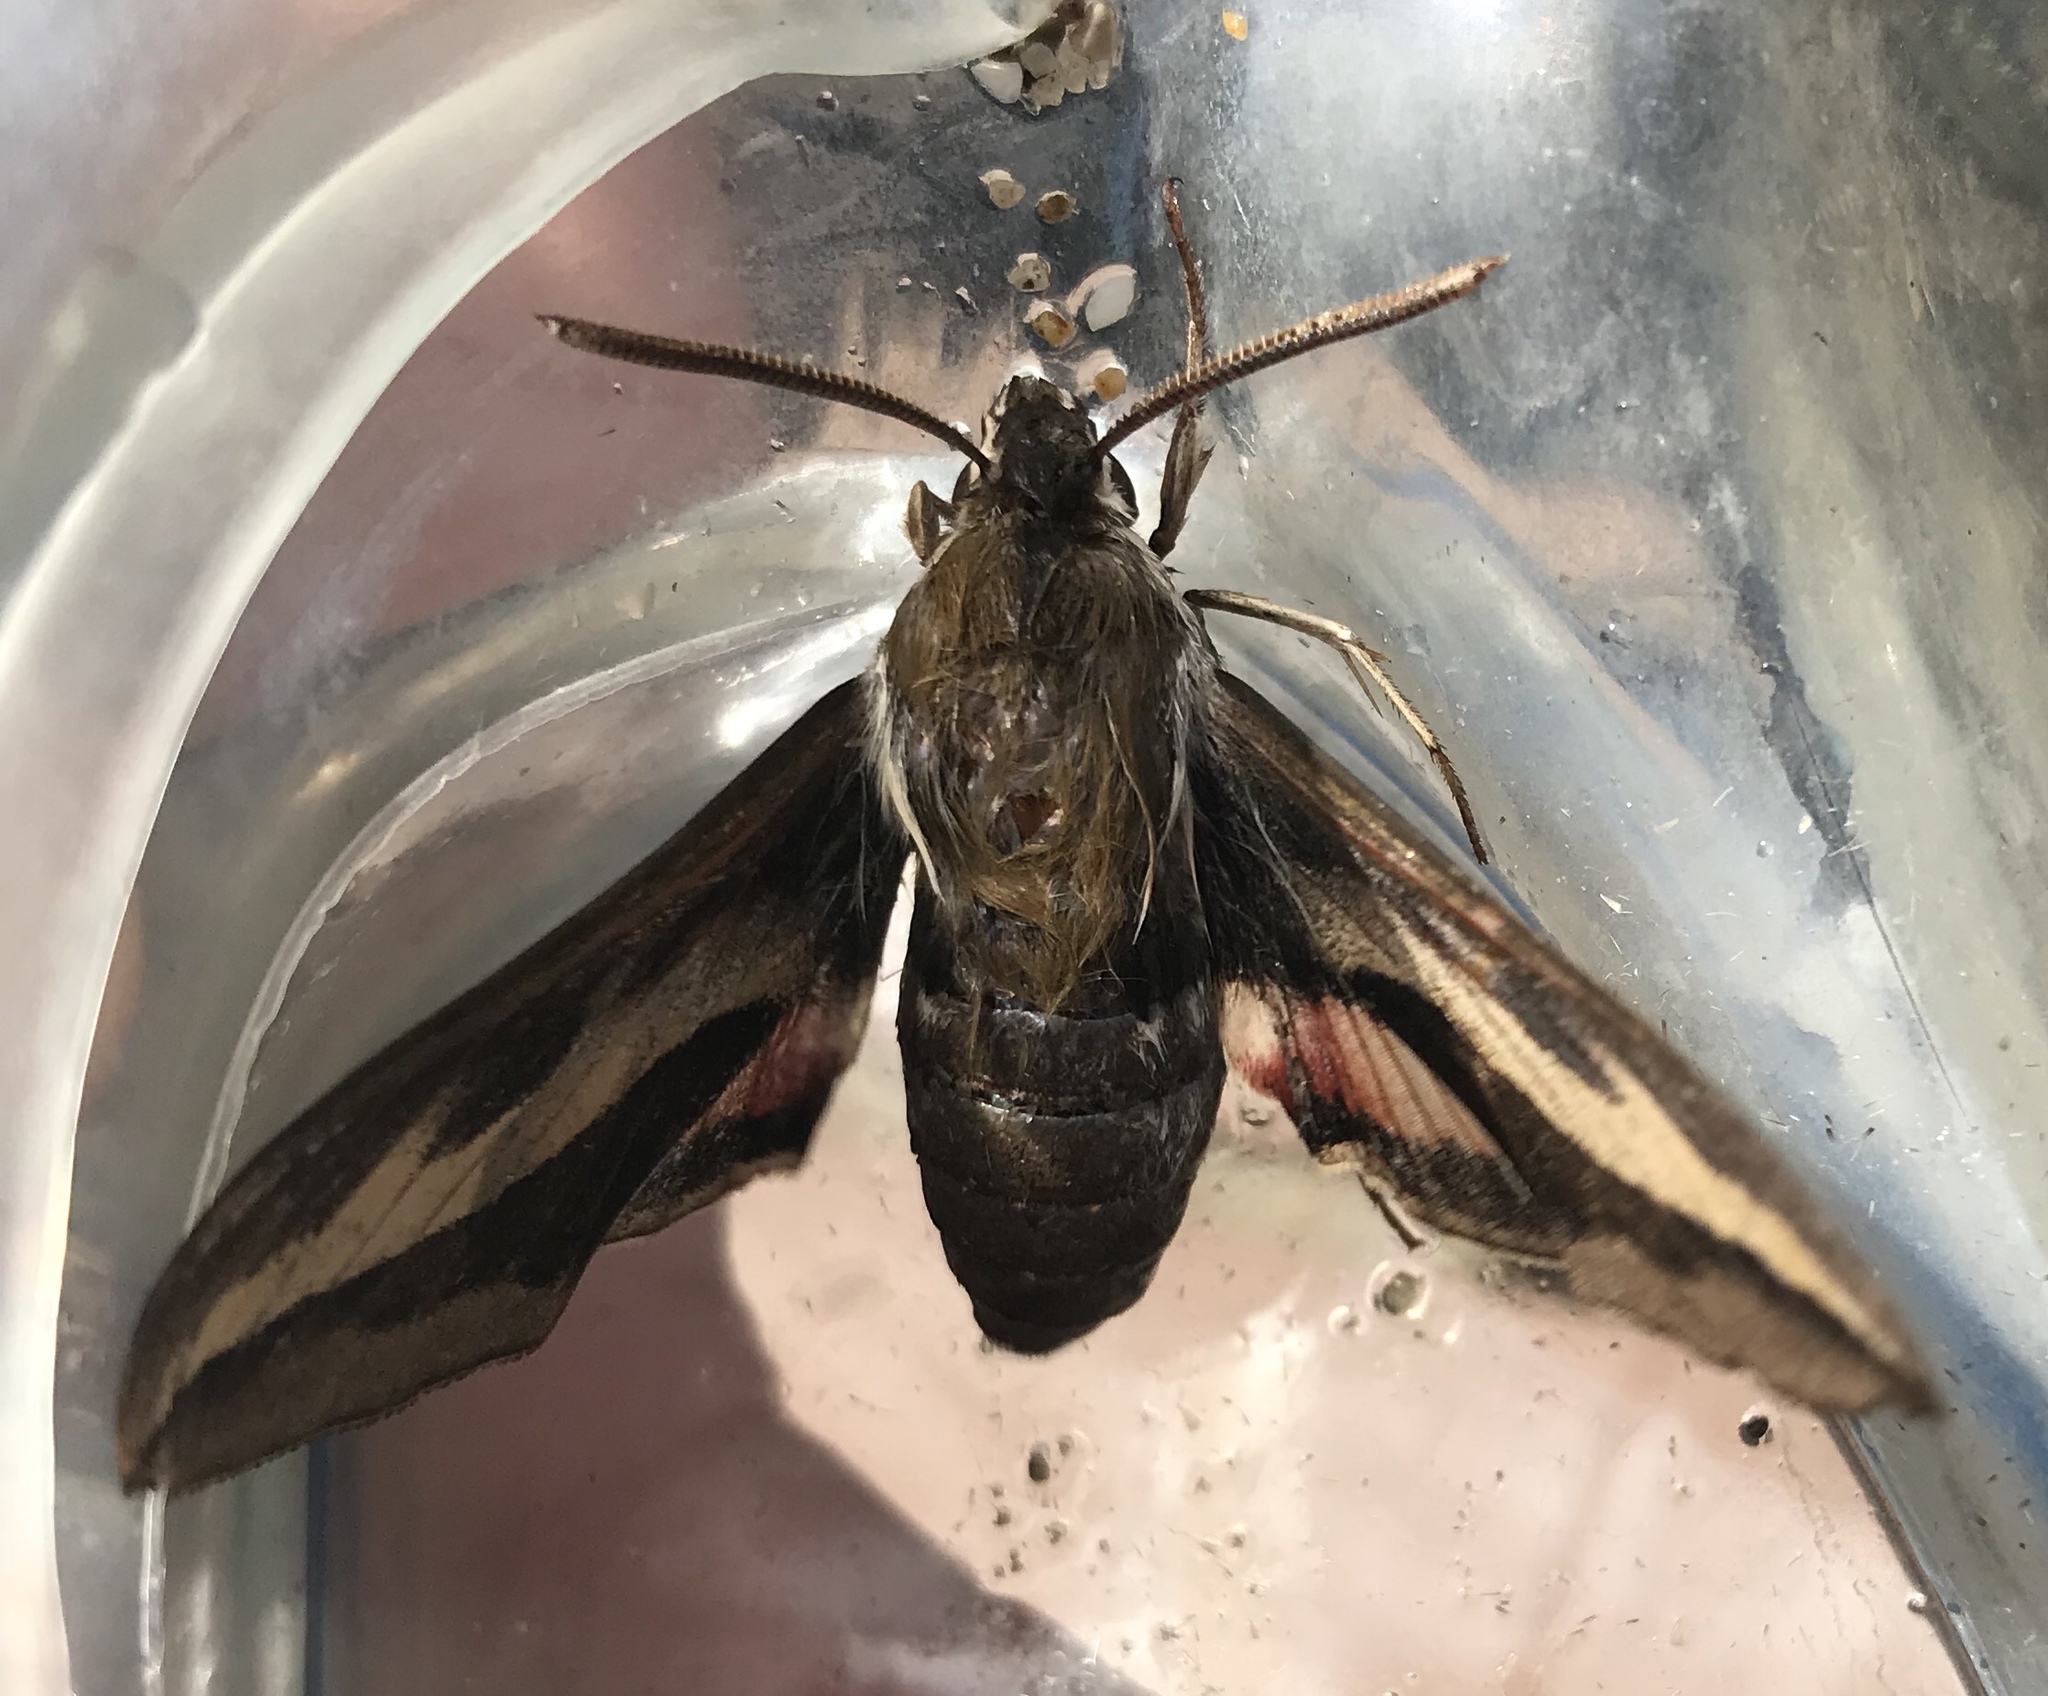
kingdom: Animalia
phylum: Arthropoda
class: Insecta
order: Lepidoptera
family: Sphingidae
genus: Hyles
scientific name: Hyles gallii
